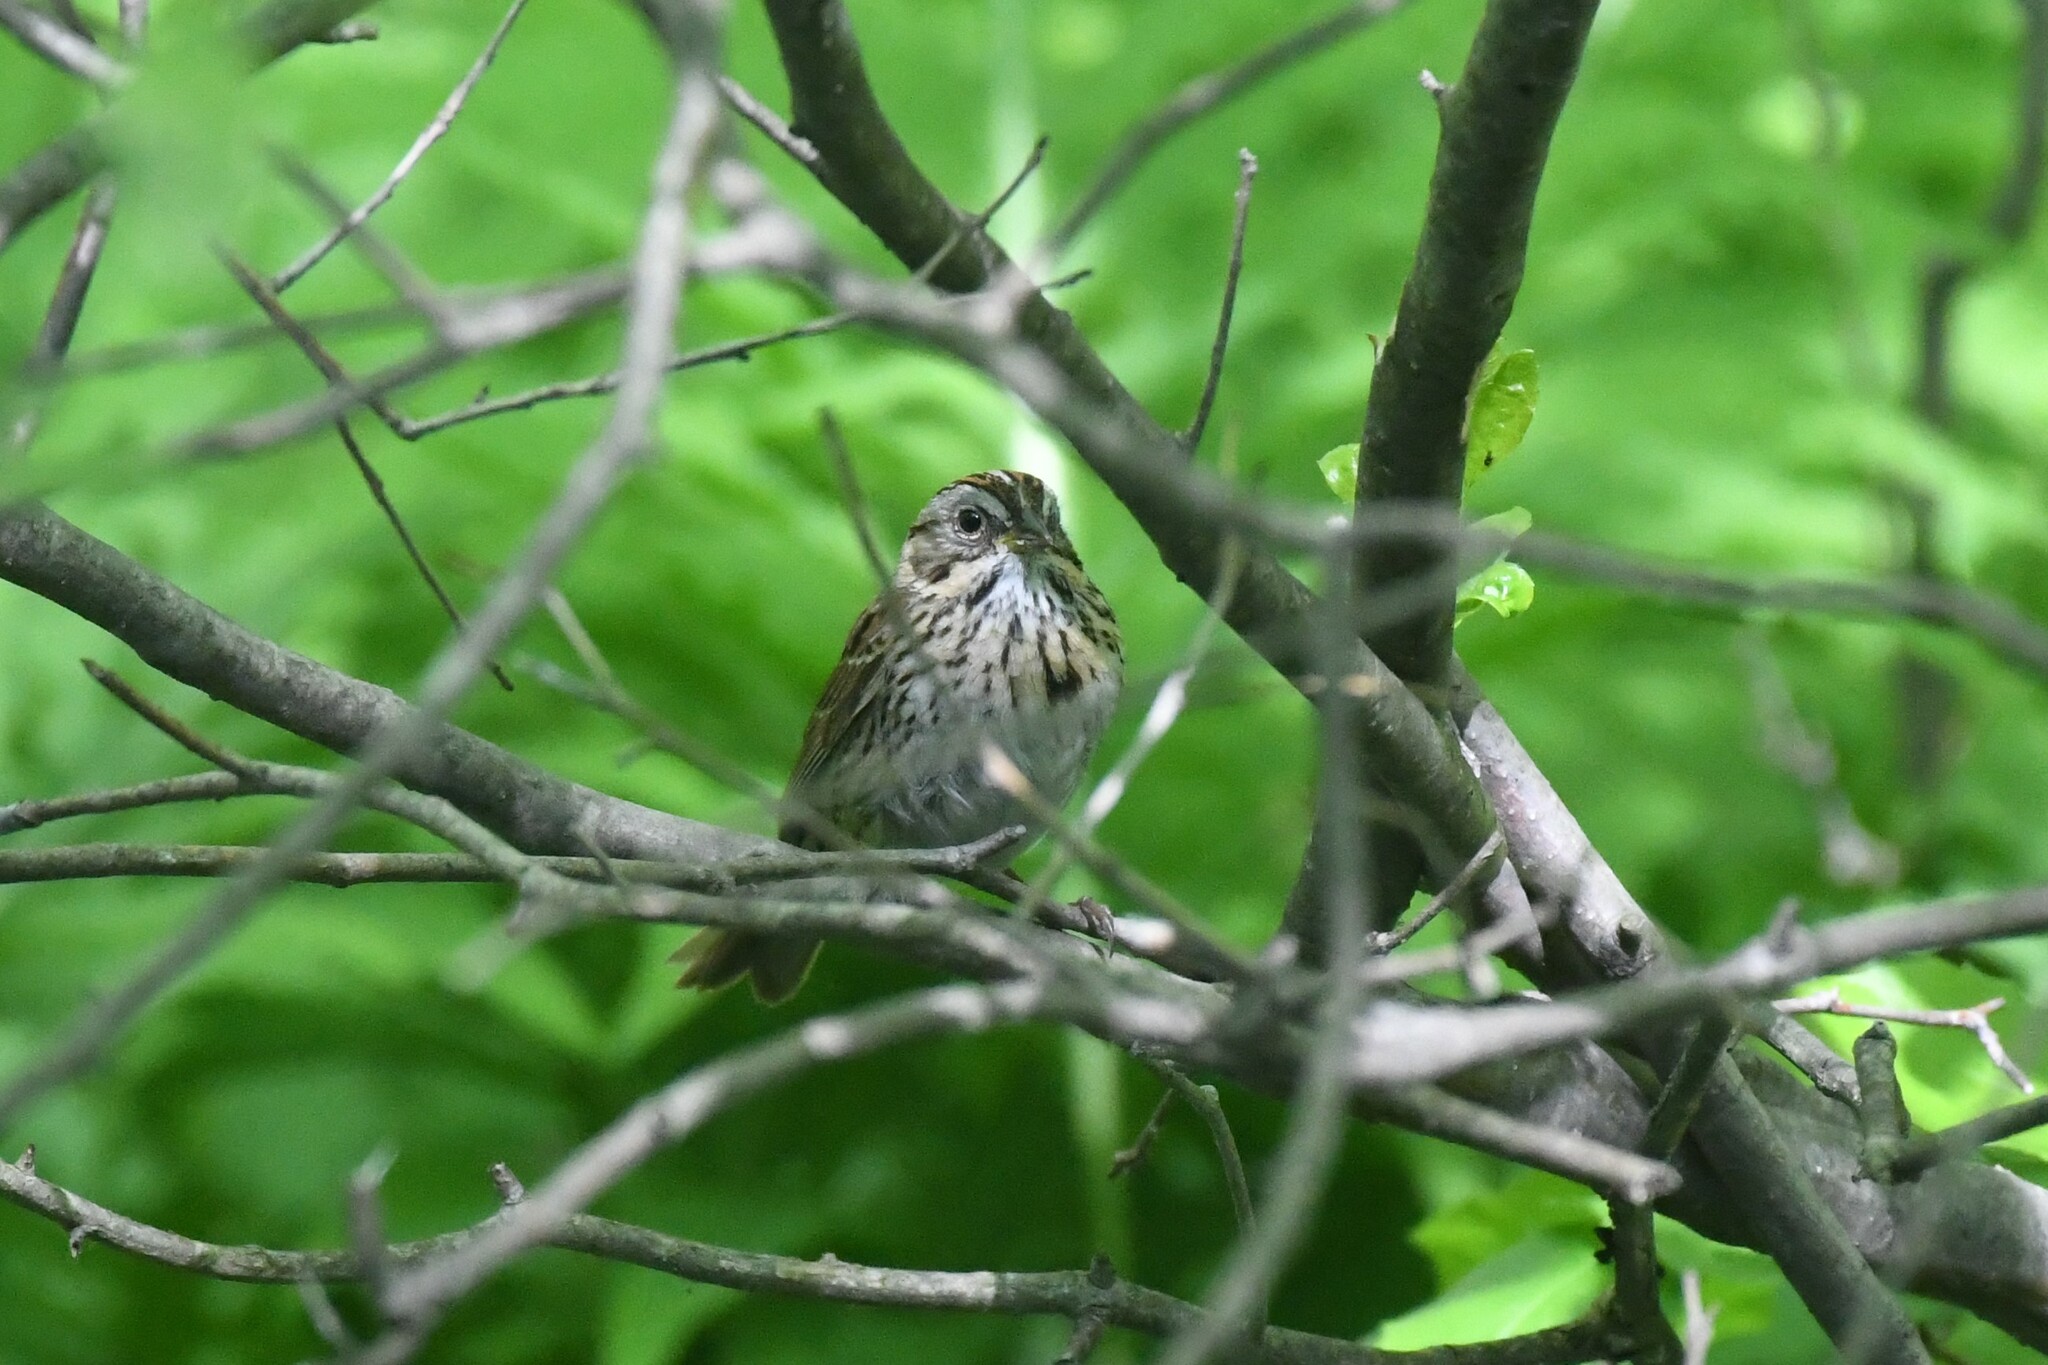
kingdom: Animalia
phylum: Chordata
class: Aves
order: Passeriformes
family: Passerellidae
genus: Melospiza
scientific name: Melospiza lincolnii
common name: Lincoln's sparrow
